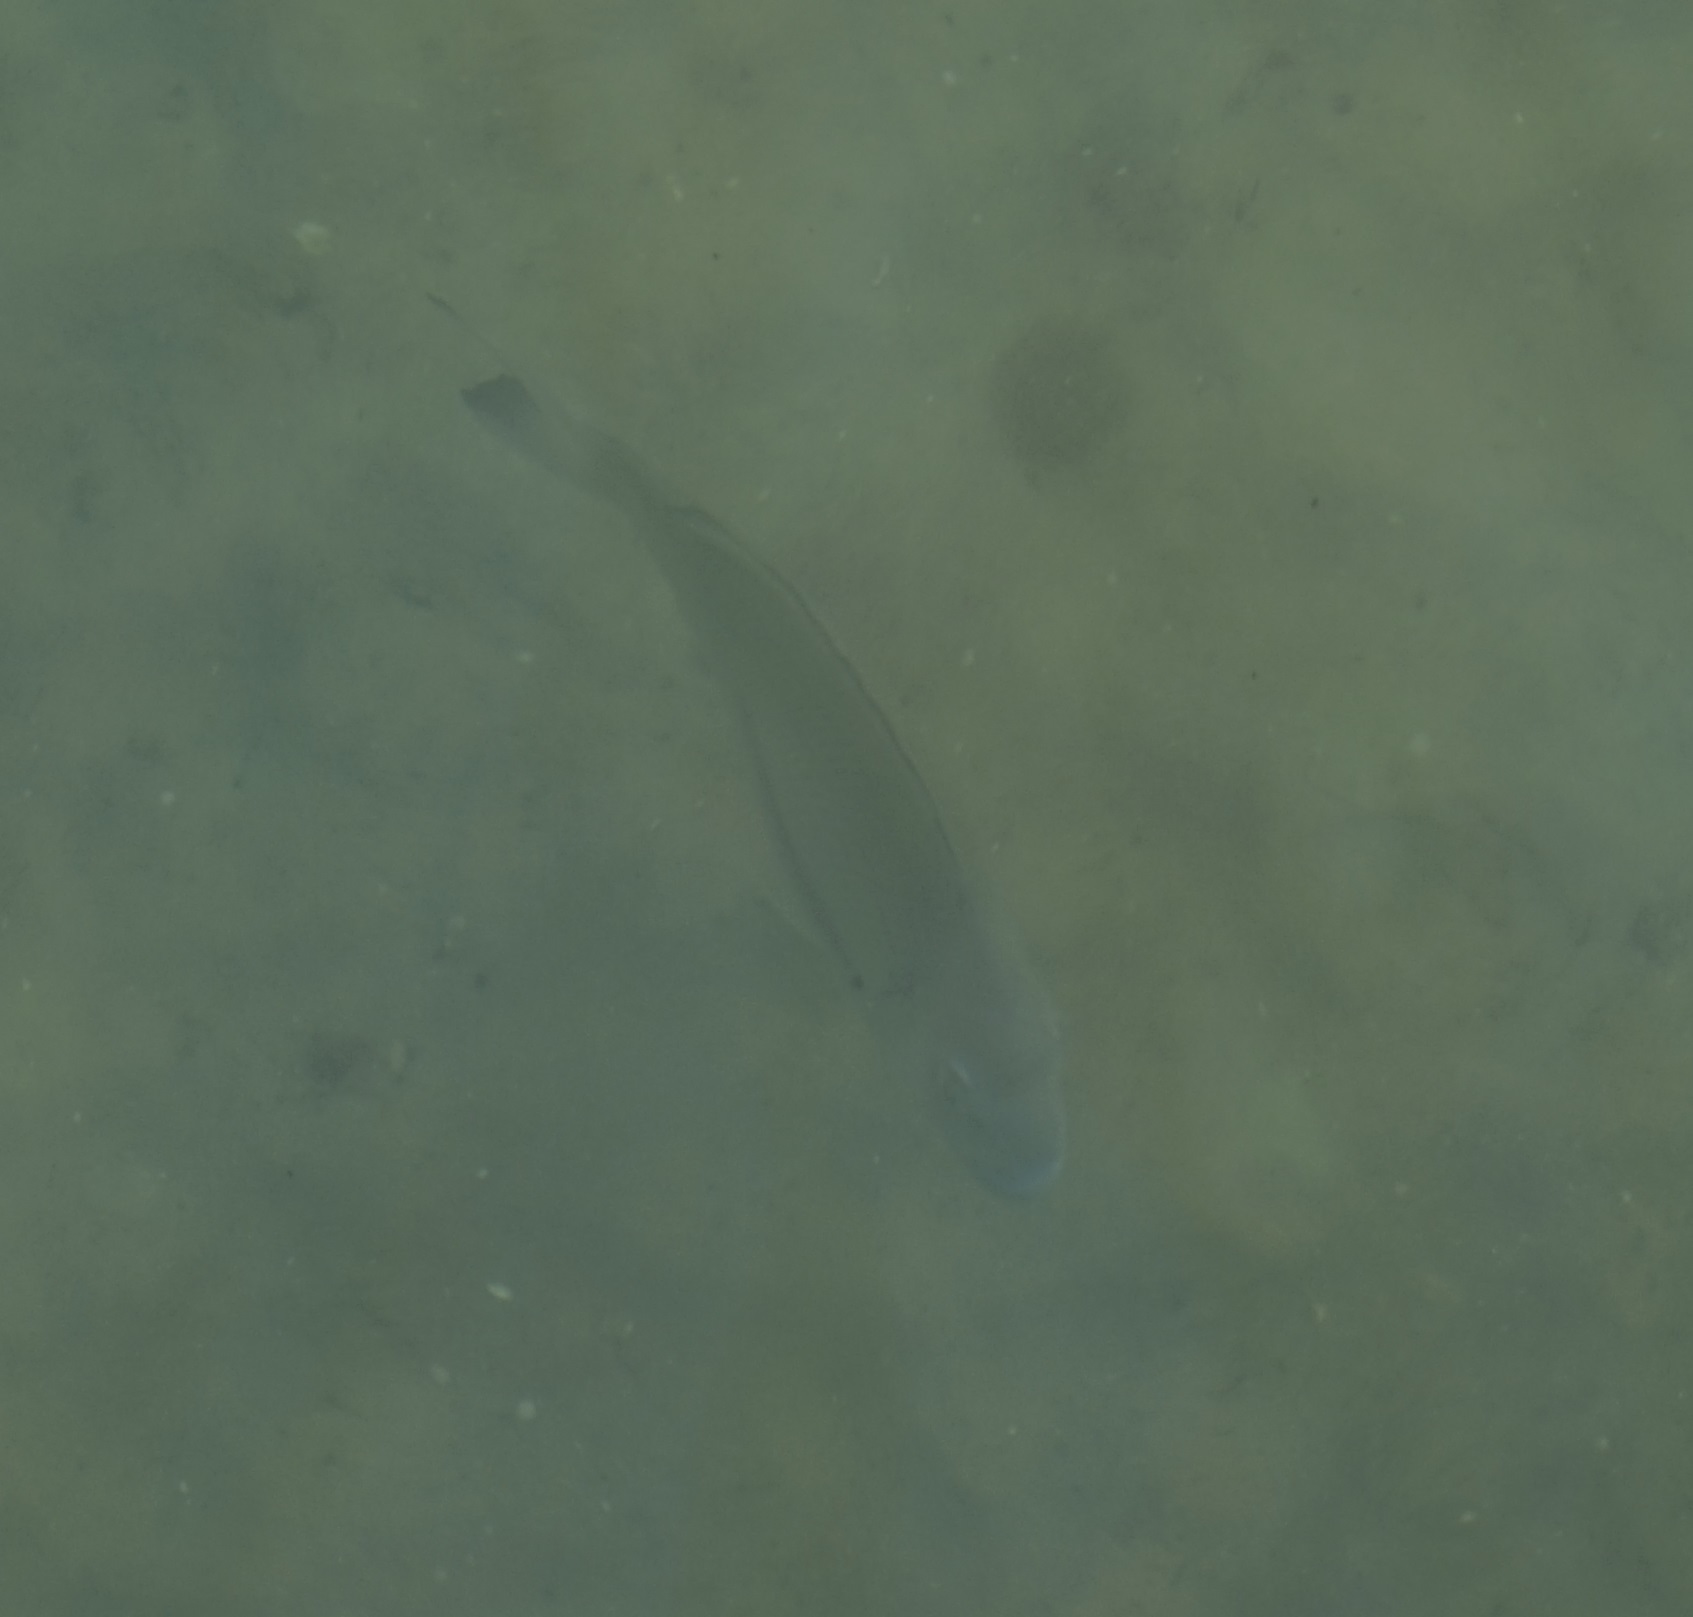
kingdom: Animalia
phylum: Chordata
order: Perciformes
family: Sparidae
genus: Acanthopagrus
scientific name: Acanthopagrus australis
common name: Surf bream
